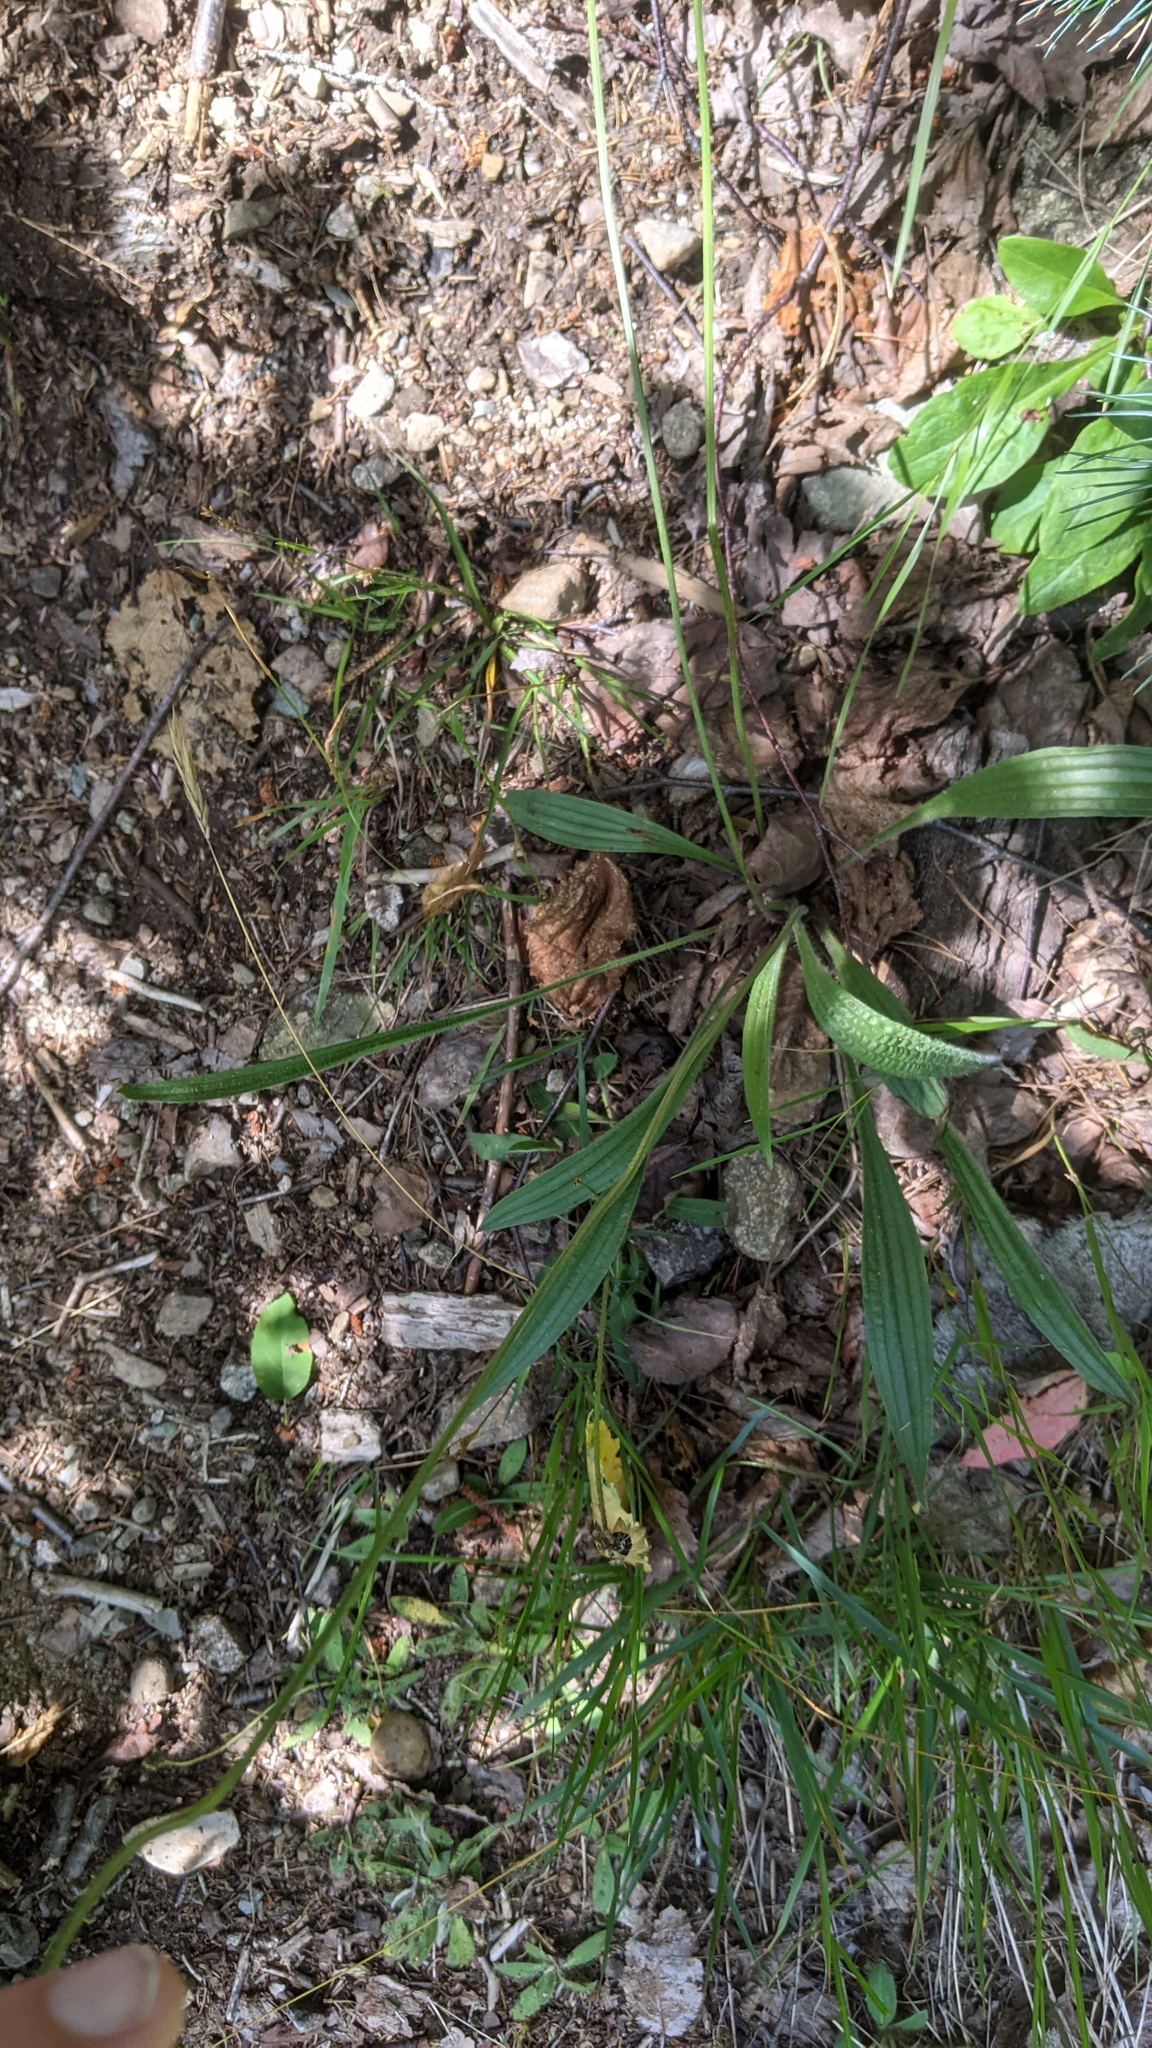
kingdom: Plantae
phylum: Tracheophyta
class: Magnoliopsida
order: Lamiales
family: Plantaginaceae
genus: Plantago
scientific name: Plantago lanceolata
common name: Ribwort plantain
